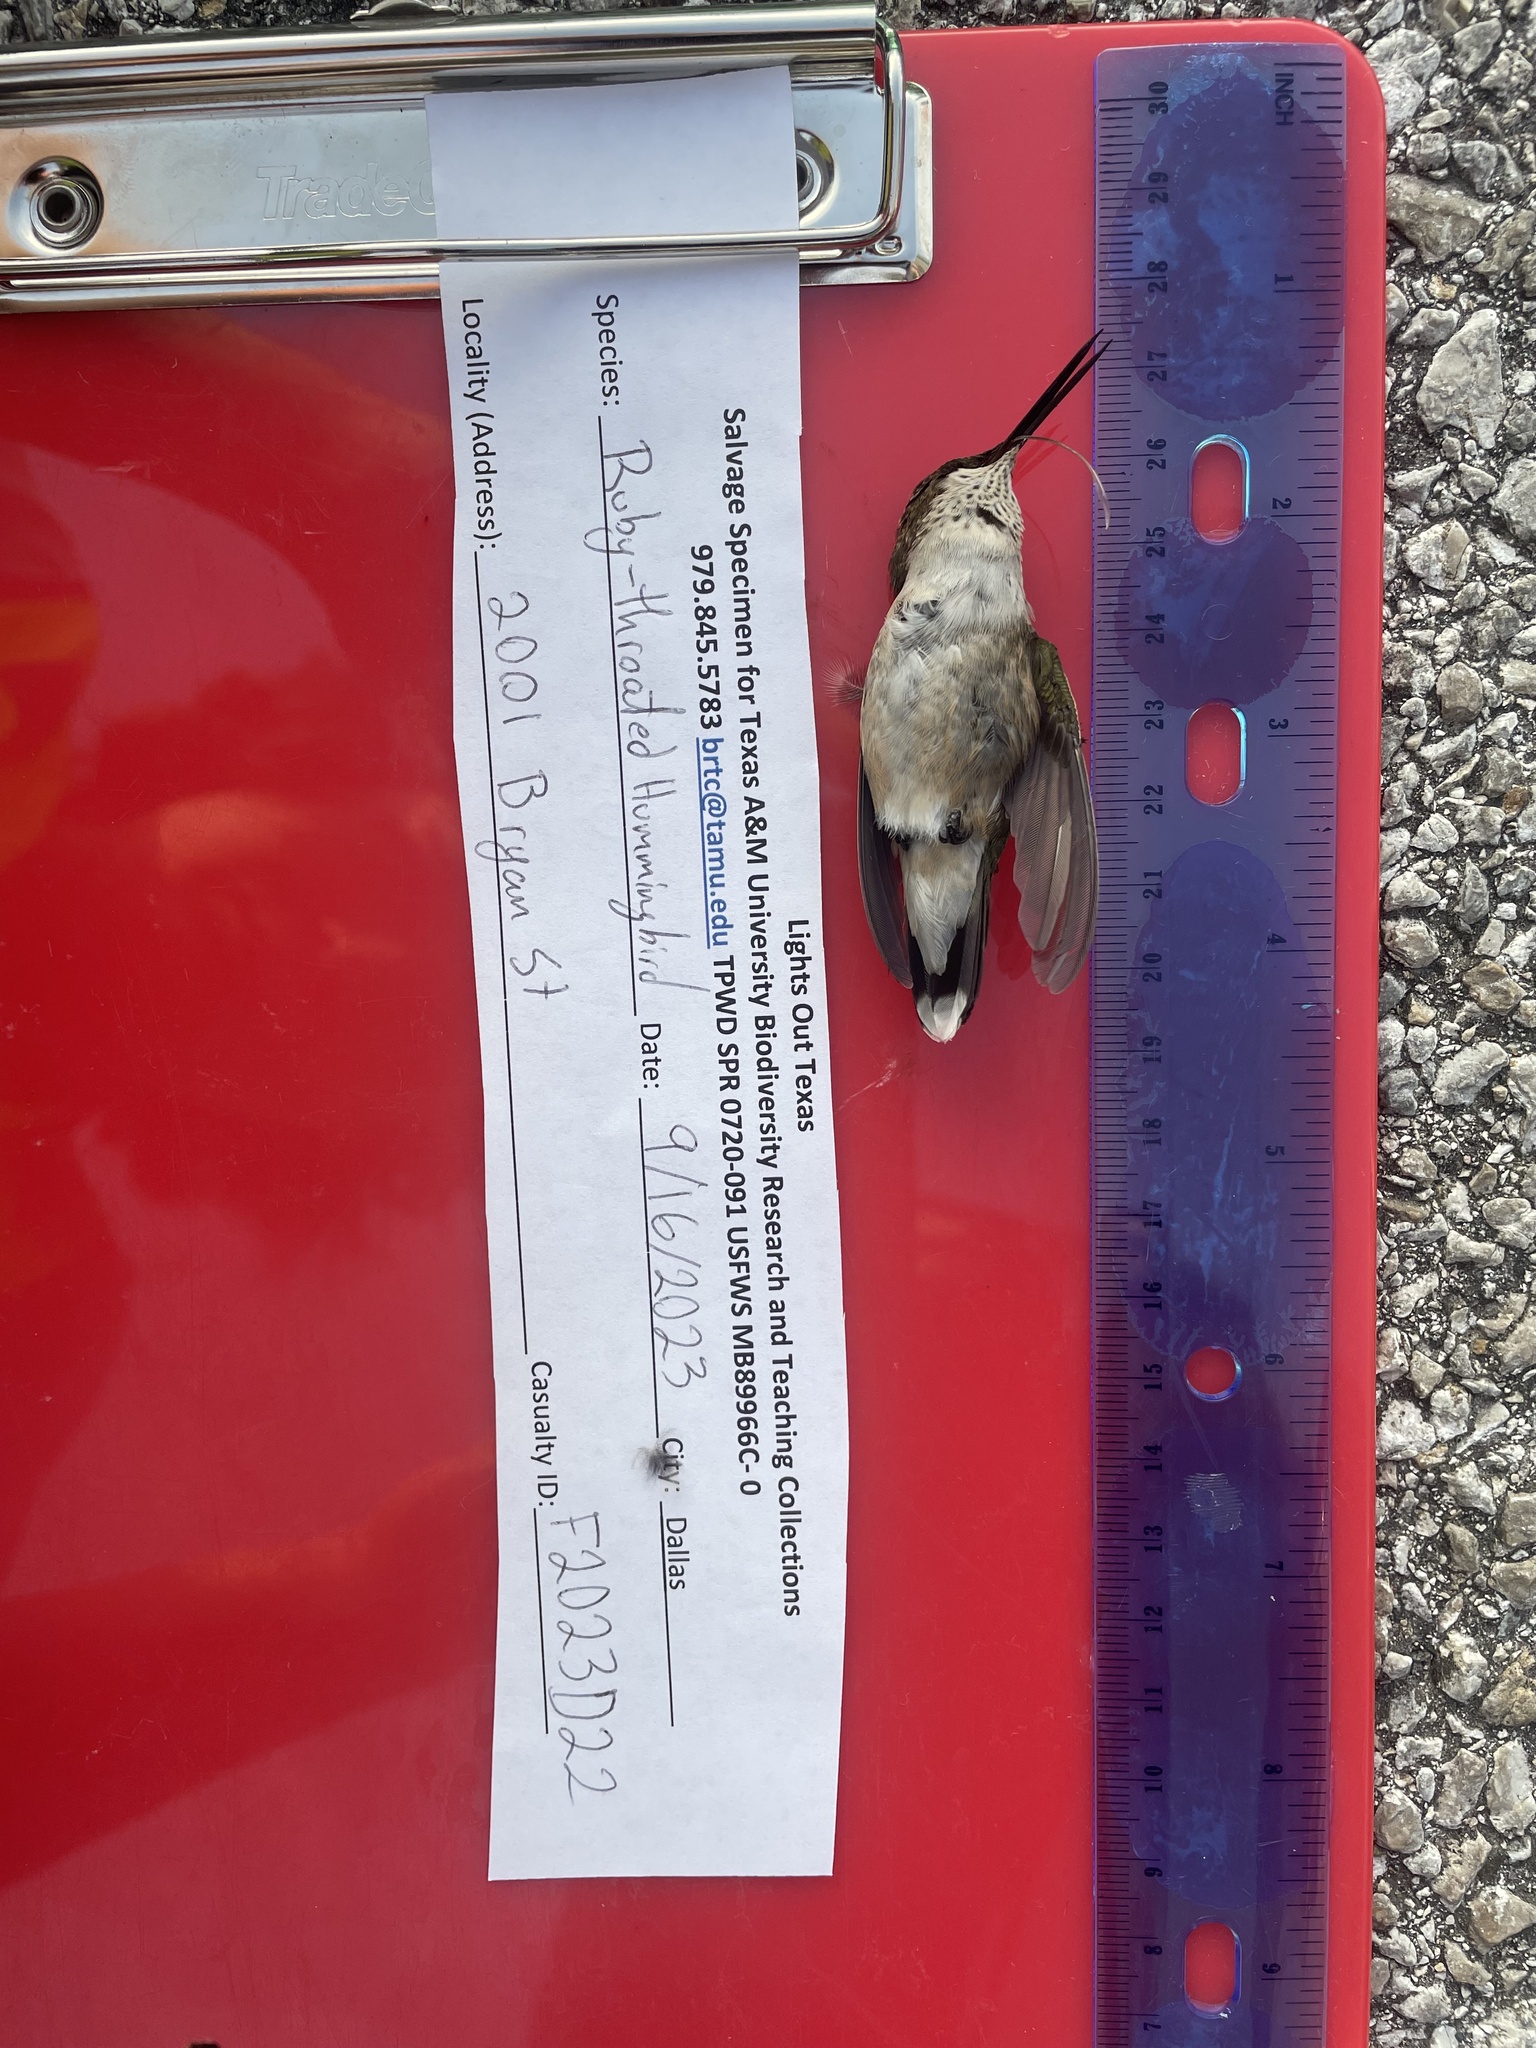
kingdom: Animalia
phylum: Chordata
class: Aves
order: Apodiformes
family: Trochilidae
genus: Archilochus
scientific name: Archilochus colubris
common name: Ruby-throated hummingbird
